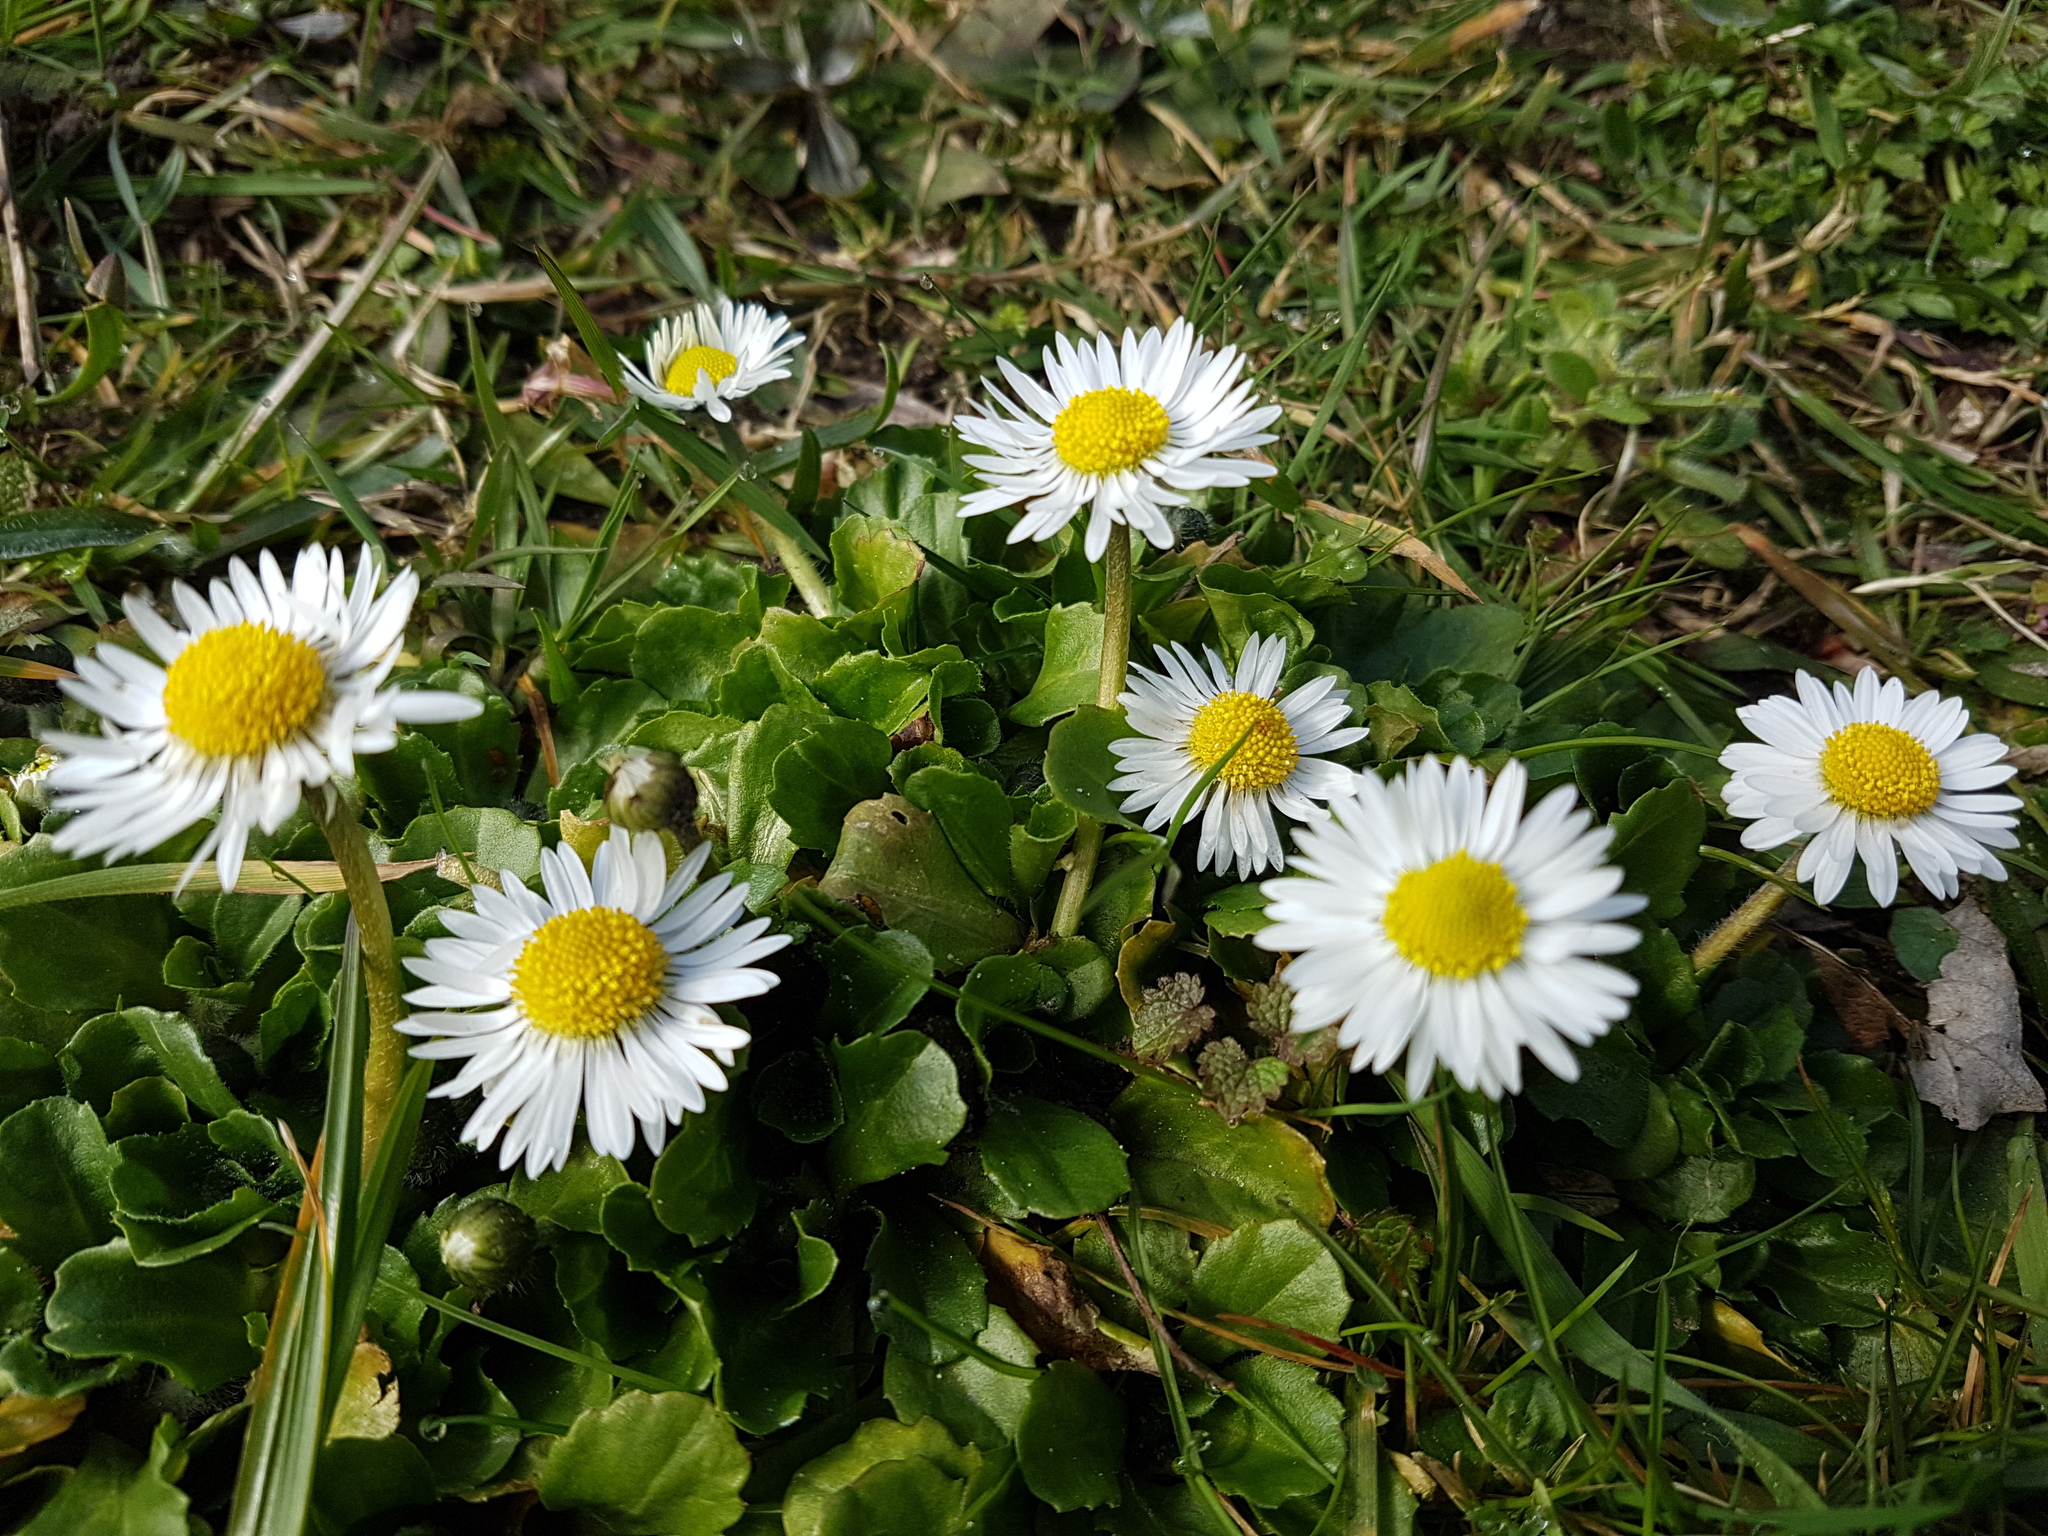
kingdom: Plantae
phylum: Tracheophyta
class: Magnoliopsida
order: Asterales
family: Asteraceae
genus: Bellis
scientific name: Bellis perennis
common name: Lawndaisy
